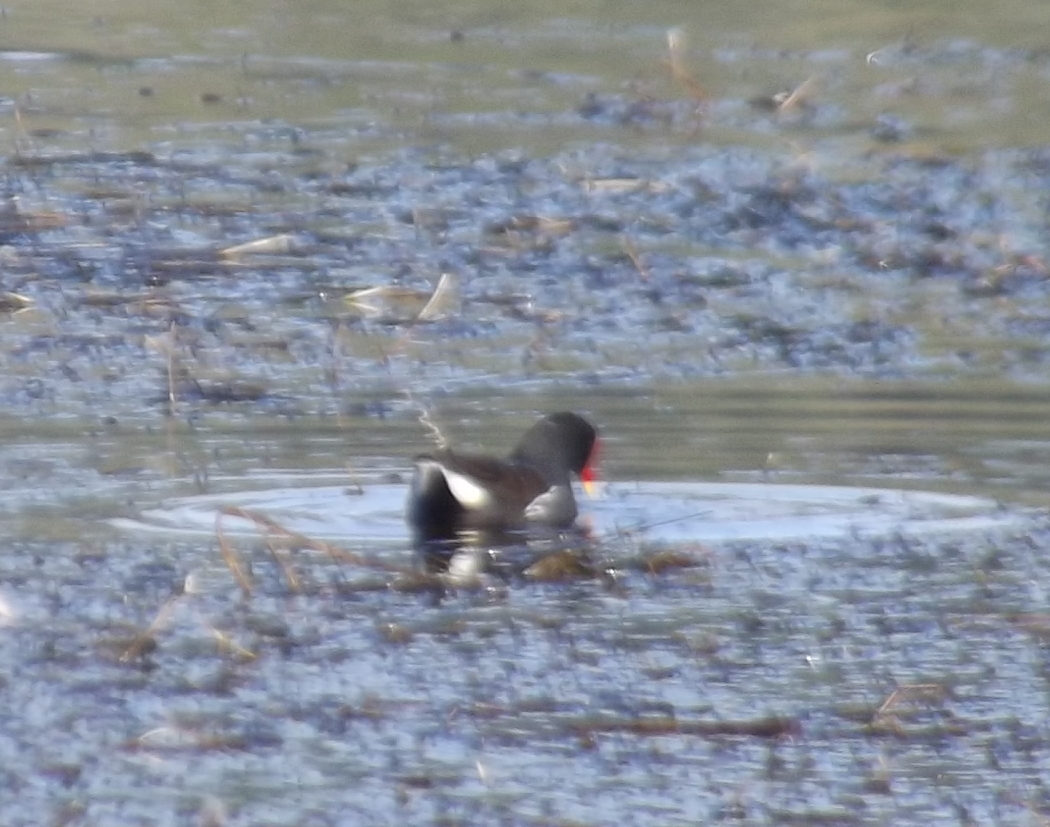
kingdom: Animalia
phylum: Chordata
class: Aves
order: Gruiformes
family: Rallidae
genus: Gallinula
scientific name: Gallinula chloropus
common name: Common moorhen
